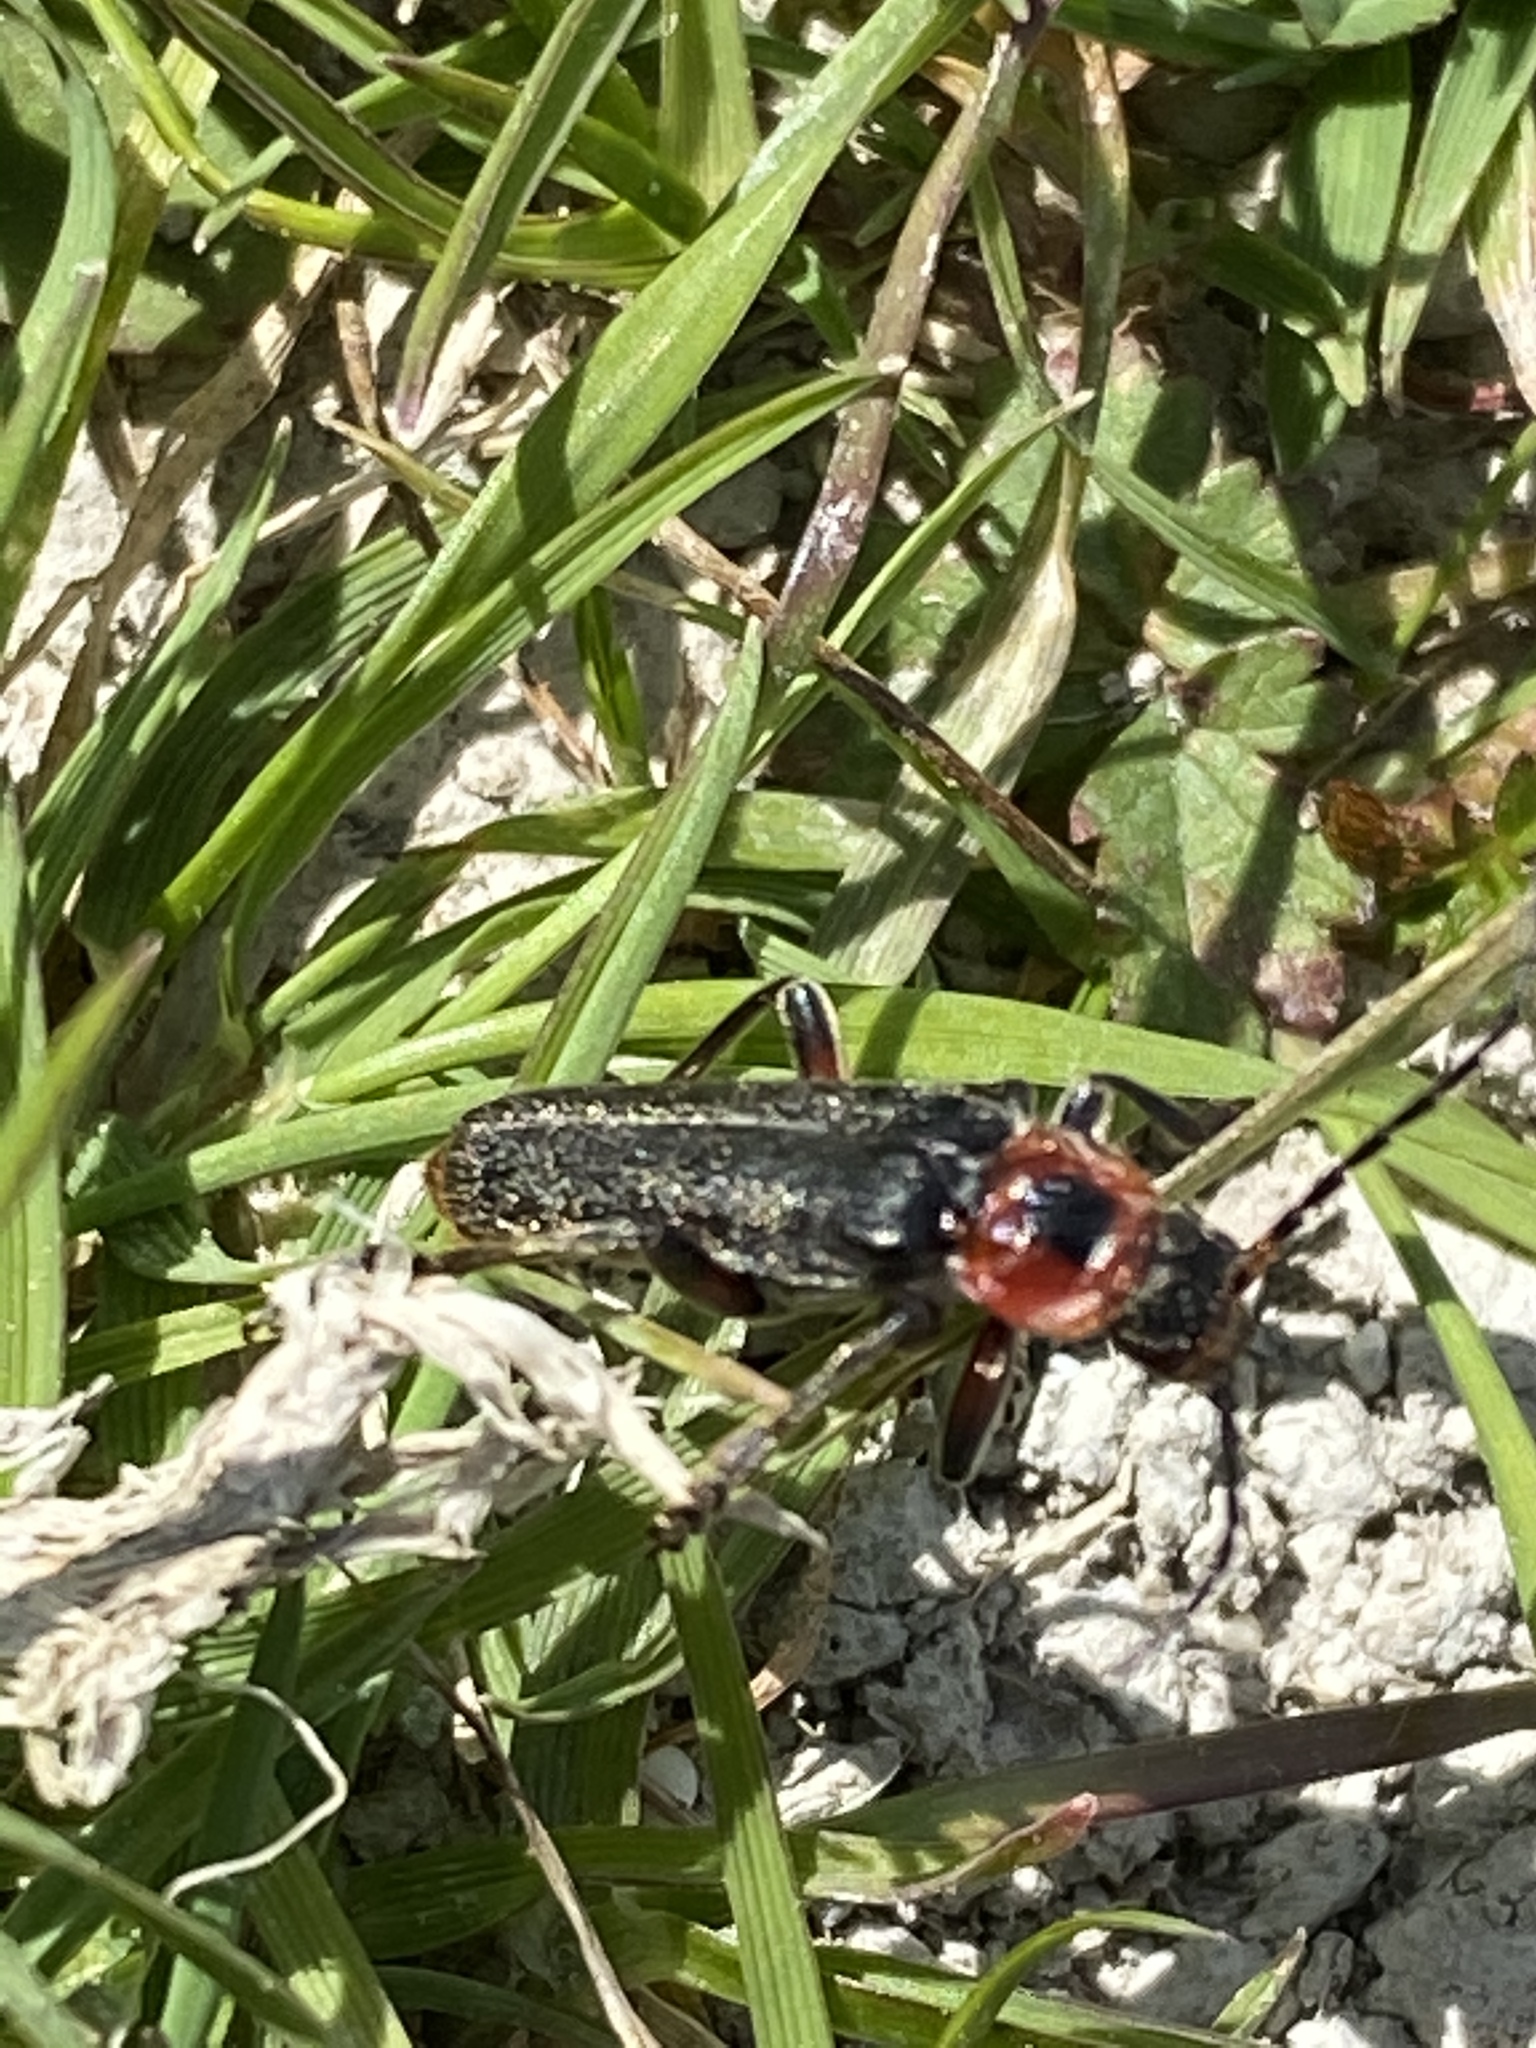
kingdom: Animalia
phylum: Arthropoda
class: Insecta
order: Coleoptera
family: Cantharidae
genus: Cantharis
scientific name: Cantharis rustica
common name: Soldier beetle
